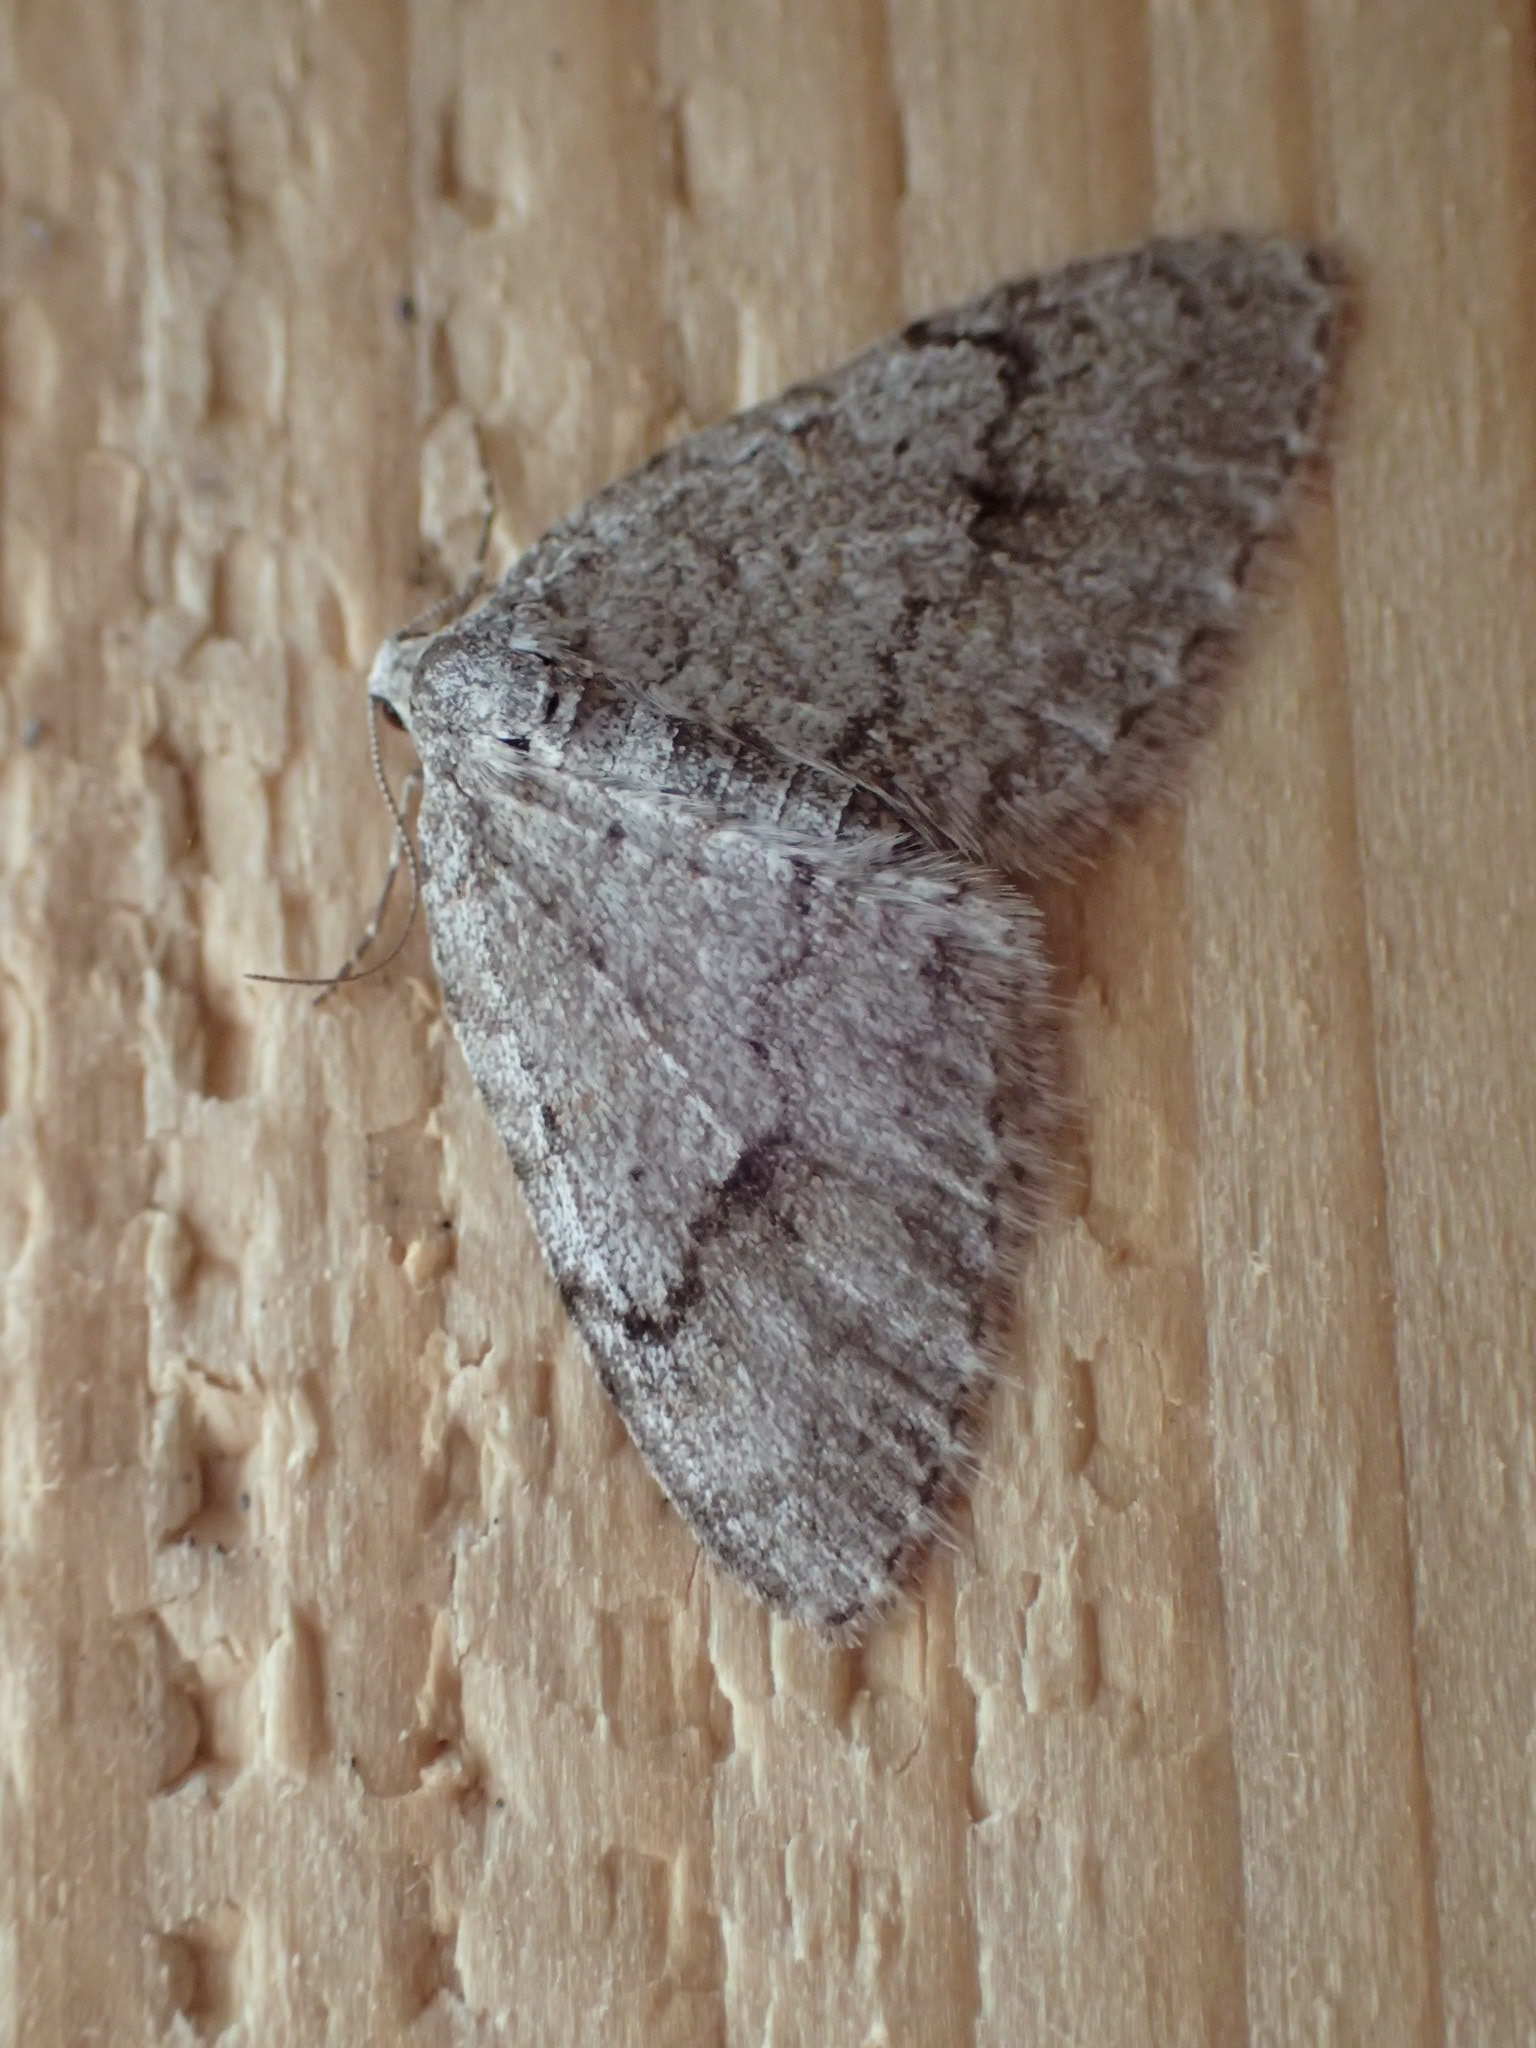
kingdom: Animalia
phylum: Arthropoda
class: Insecta
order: Lepidoptera
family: Geometridae
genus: Venusia
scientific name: Venusia comptaria
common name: Brown-shaded carpet
